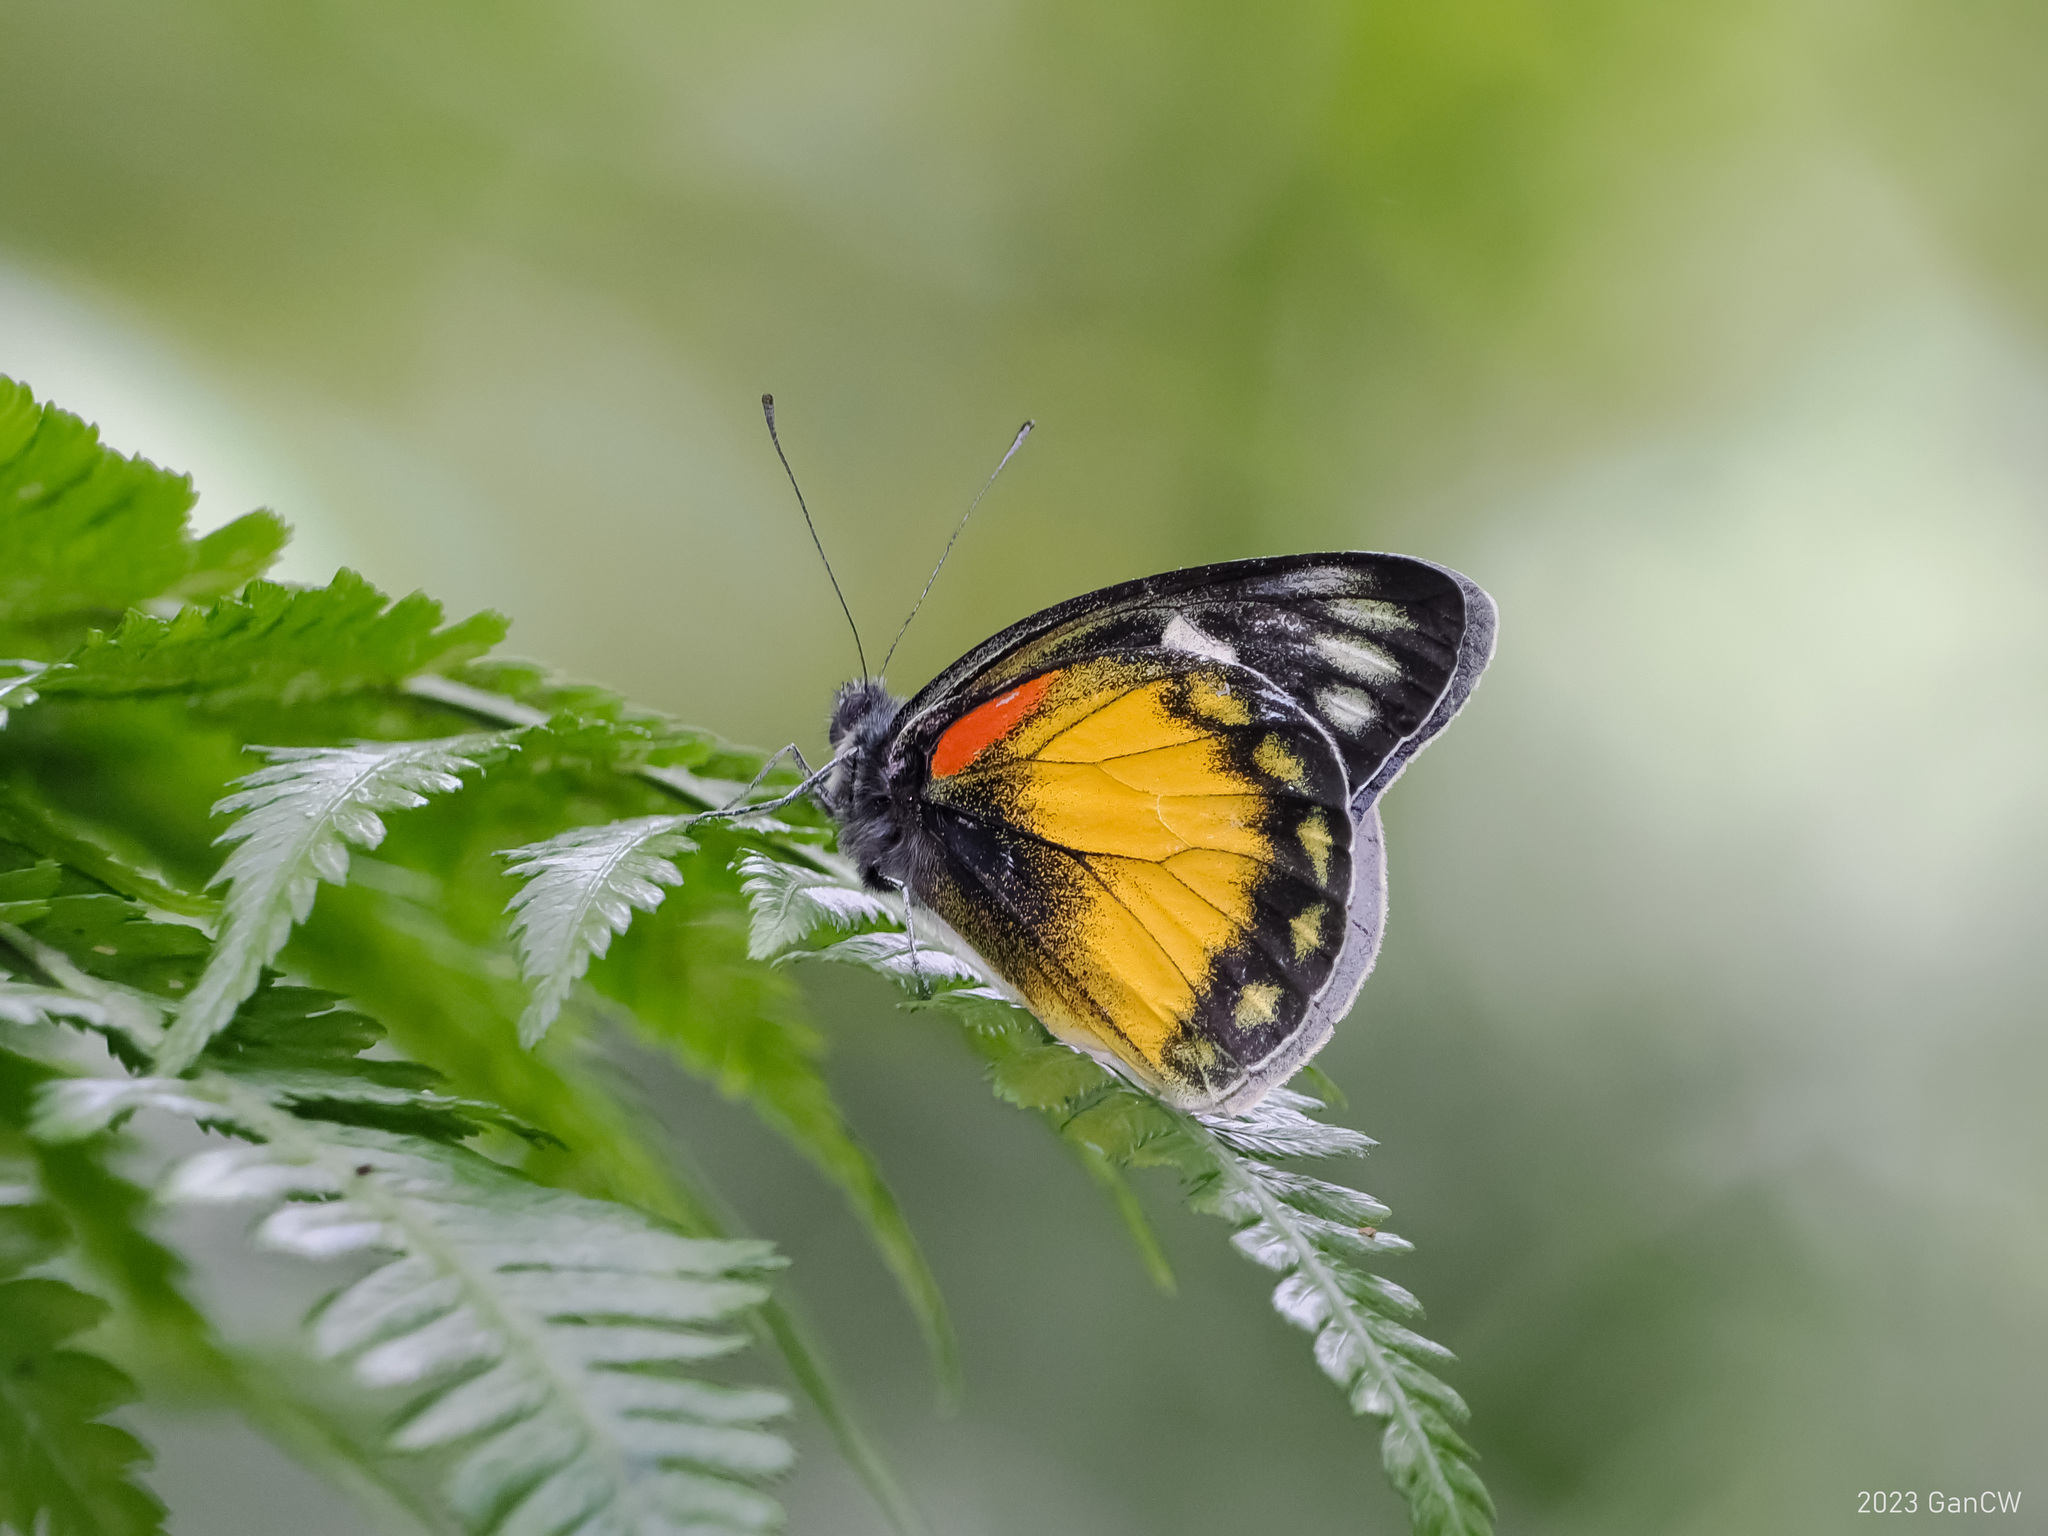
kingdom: Animalia
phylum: Arthropoda
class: Insecta
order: Lepidoptera
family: Pieridae
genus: Delias
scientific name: Delias zebuda
